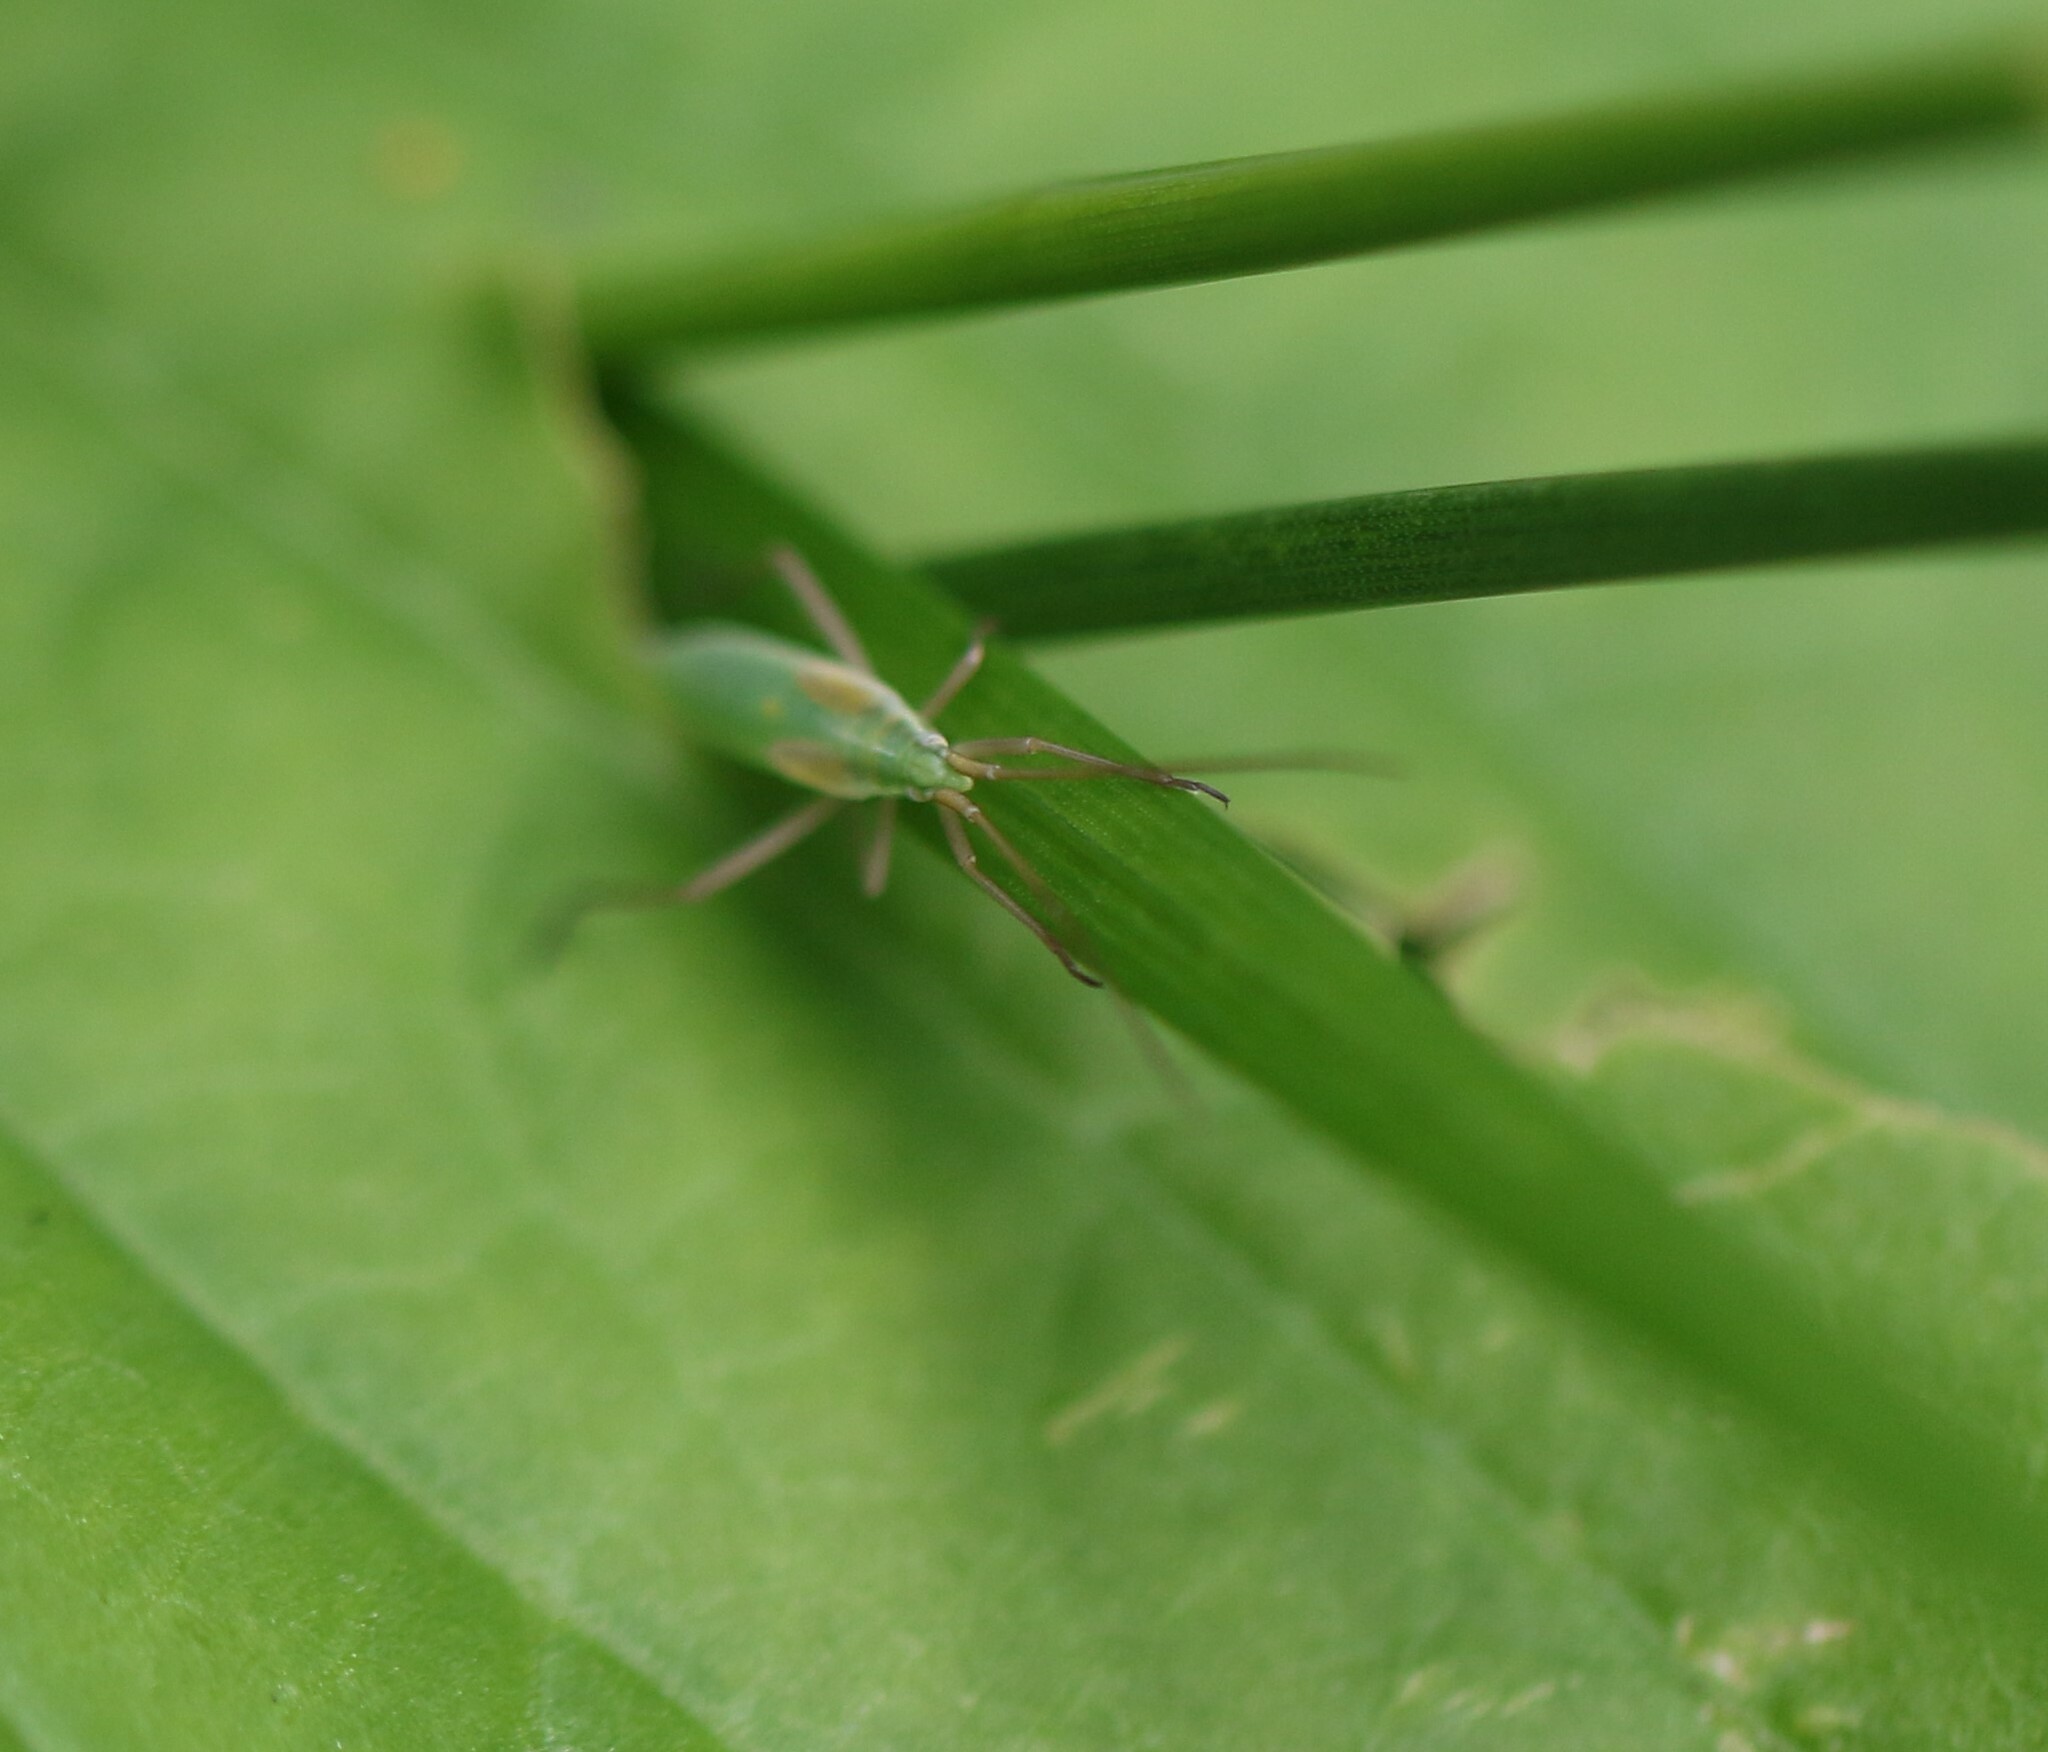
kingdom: Animalia
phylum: Arthropoda
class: Insecta
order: Hemiptera
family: Miridae
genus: Megaloceroea
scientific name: Megaloceroea recticornis
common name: Plant bug
